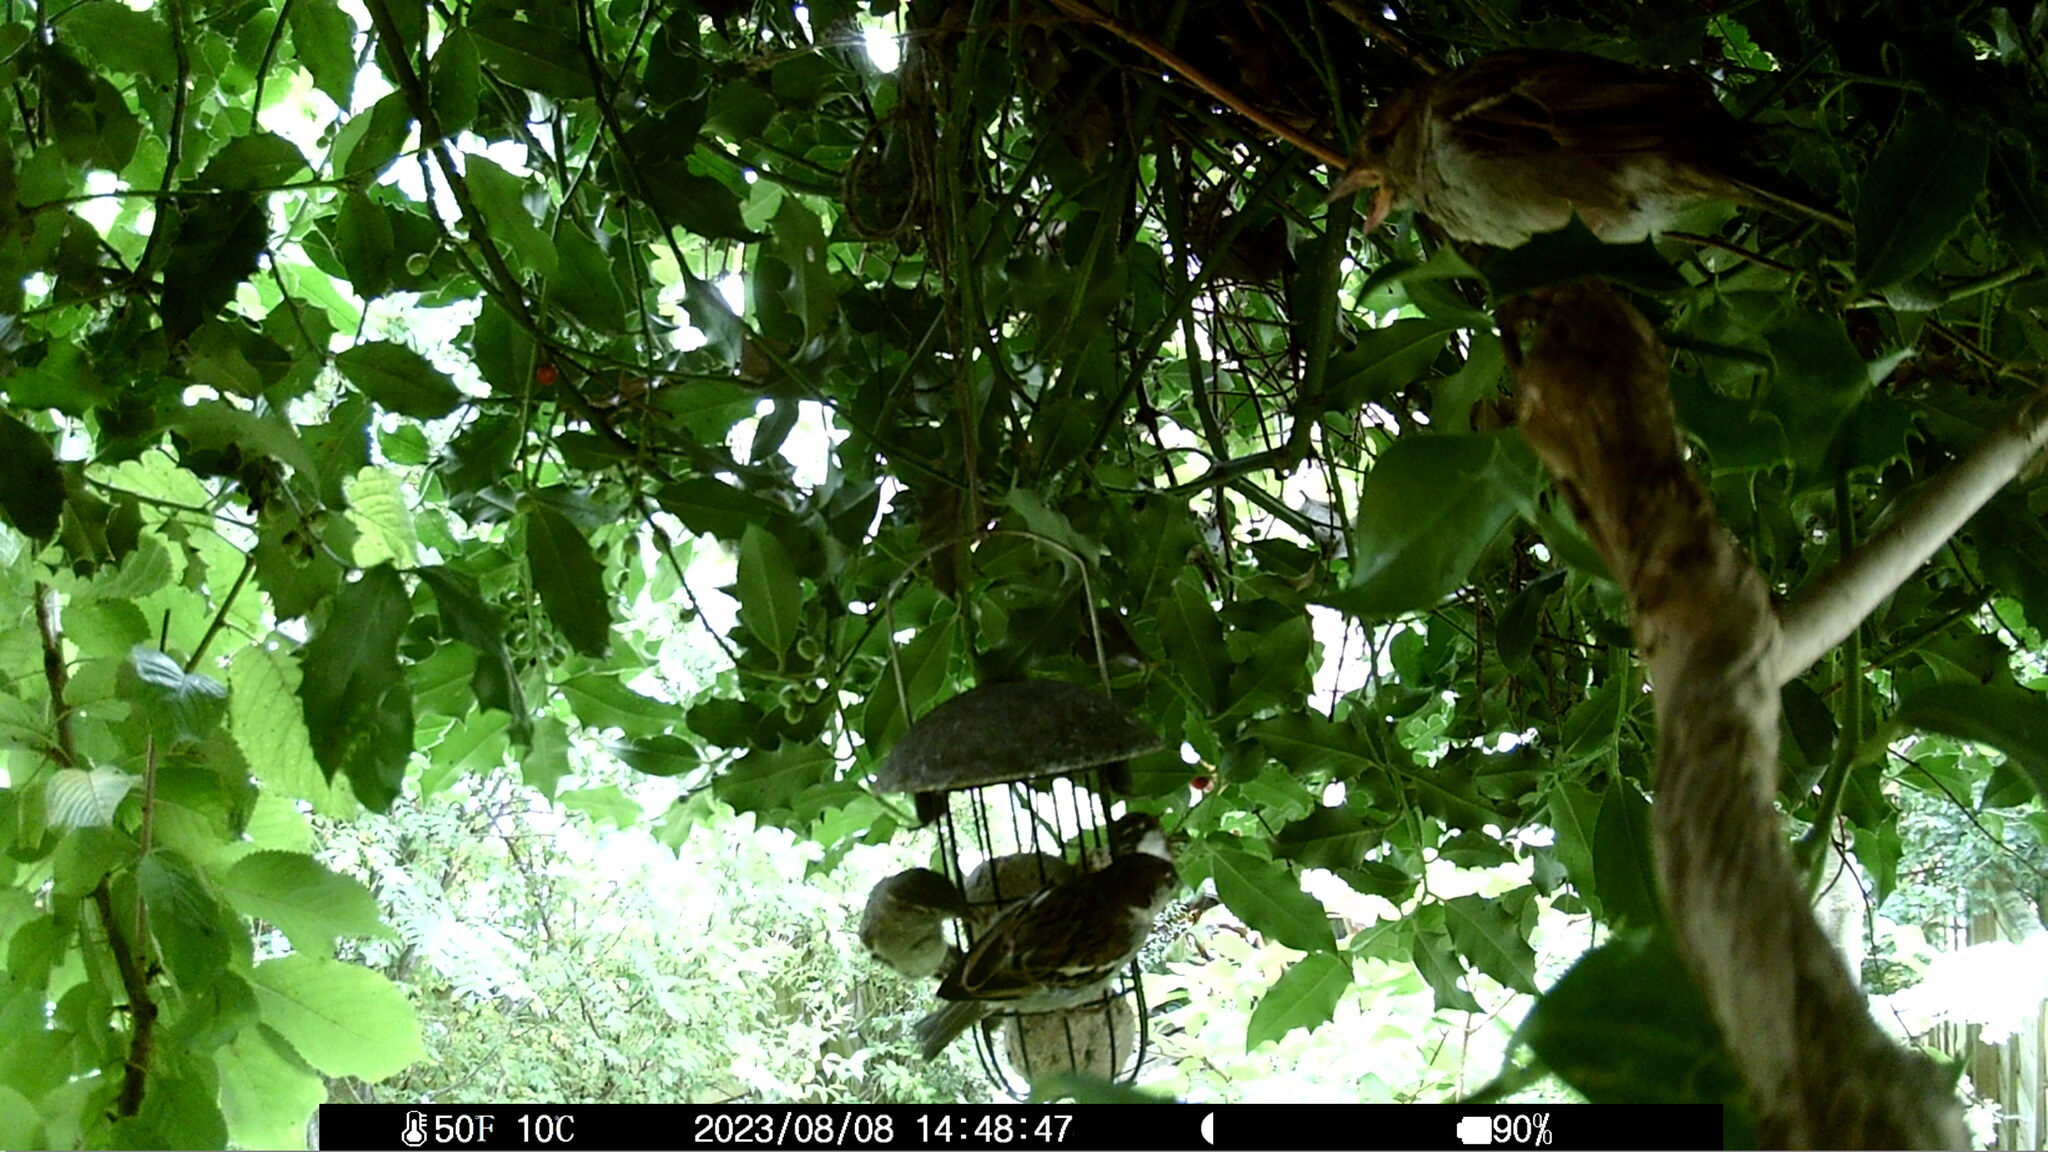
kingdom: Animalia
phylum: Chordata
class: Aves
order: Passeriformes
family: Passeridae
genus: Passer
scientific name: Passer domesticus
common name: House sparrow
